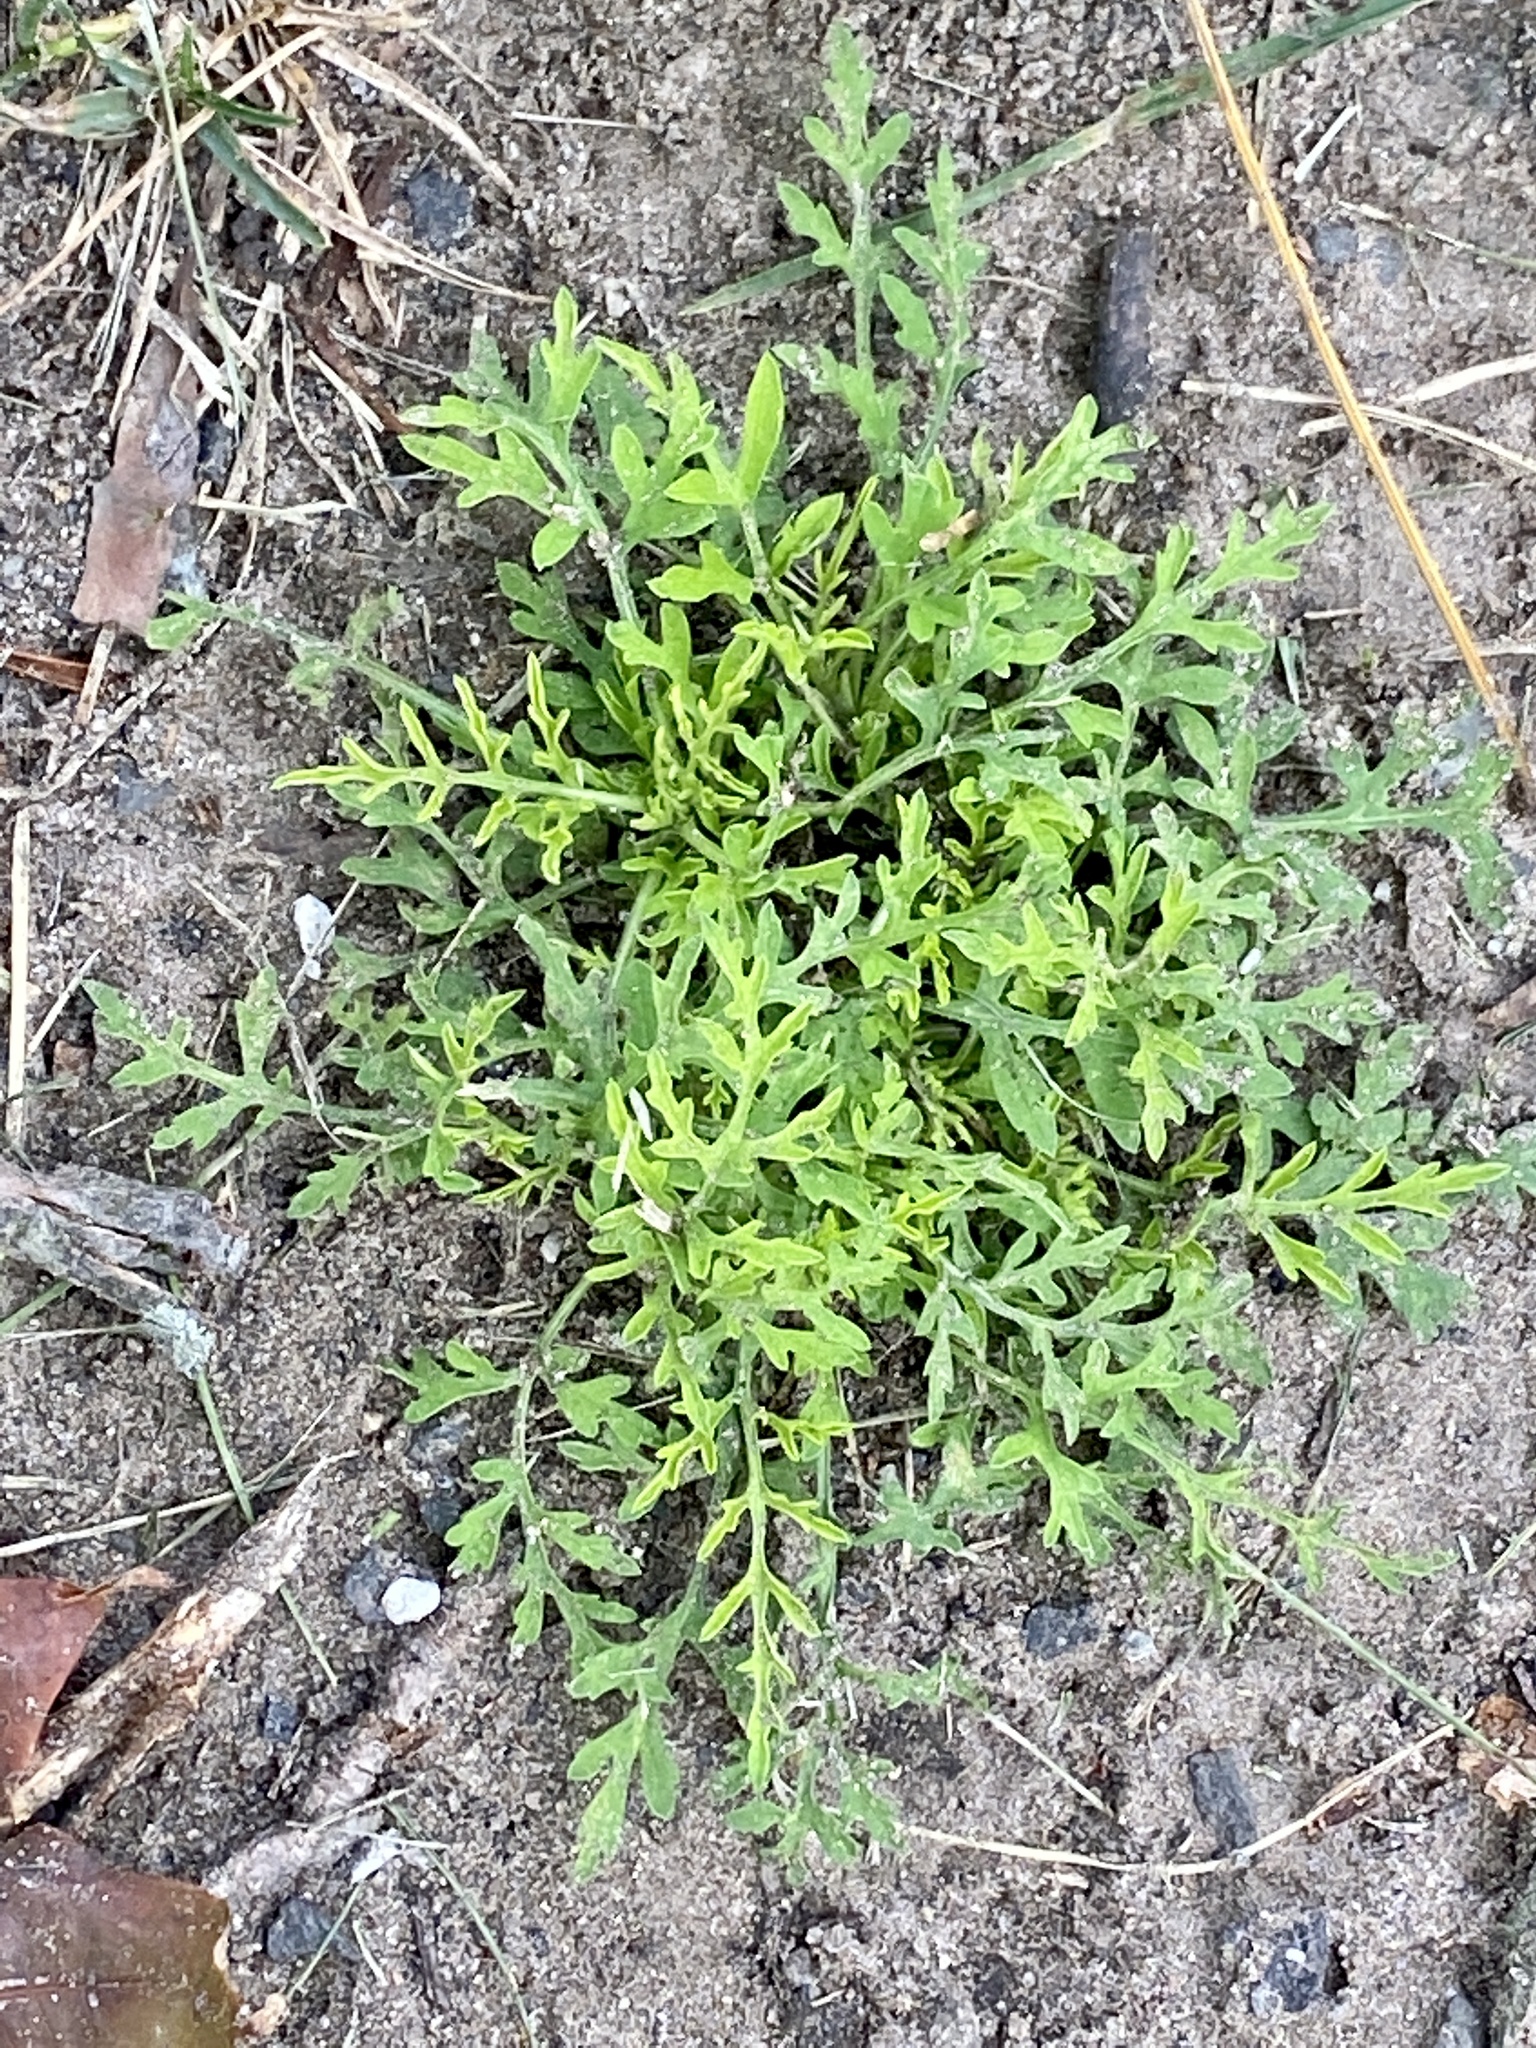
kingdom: Plantae
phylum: Tracheophyta
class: Magnoliopsida
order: Asterales
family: Asteraceae
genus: Ambrosia
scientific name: Ambrosia artemisiifolia
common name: Annual ragweed
